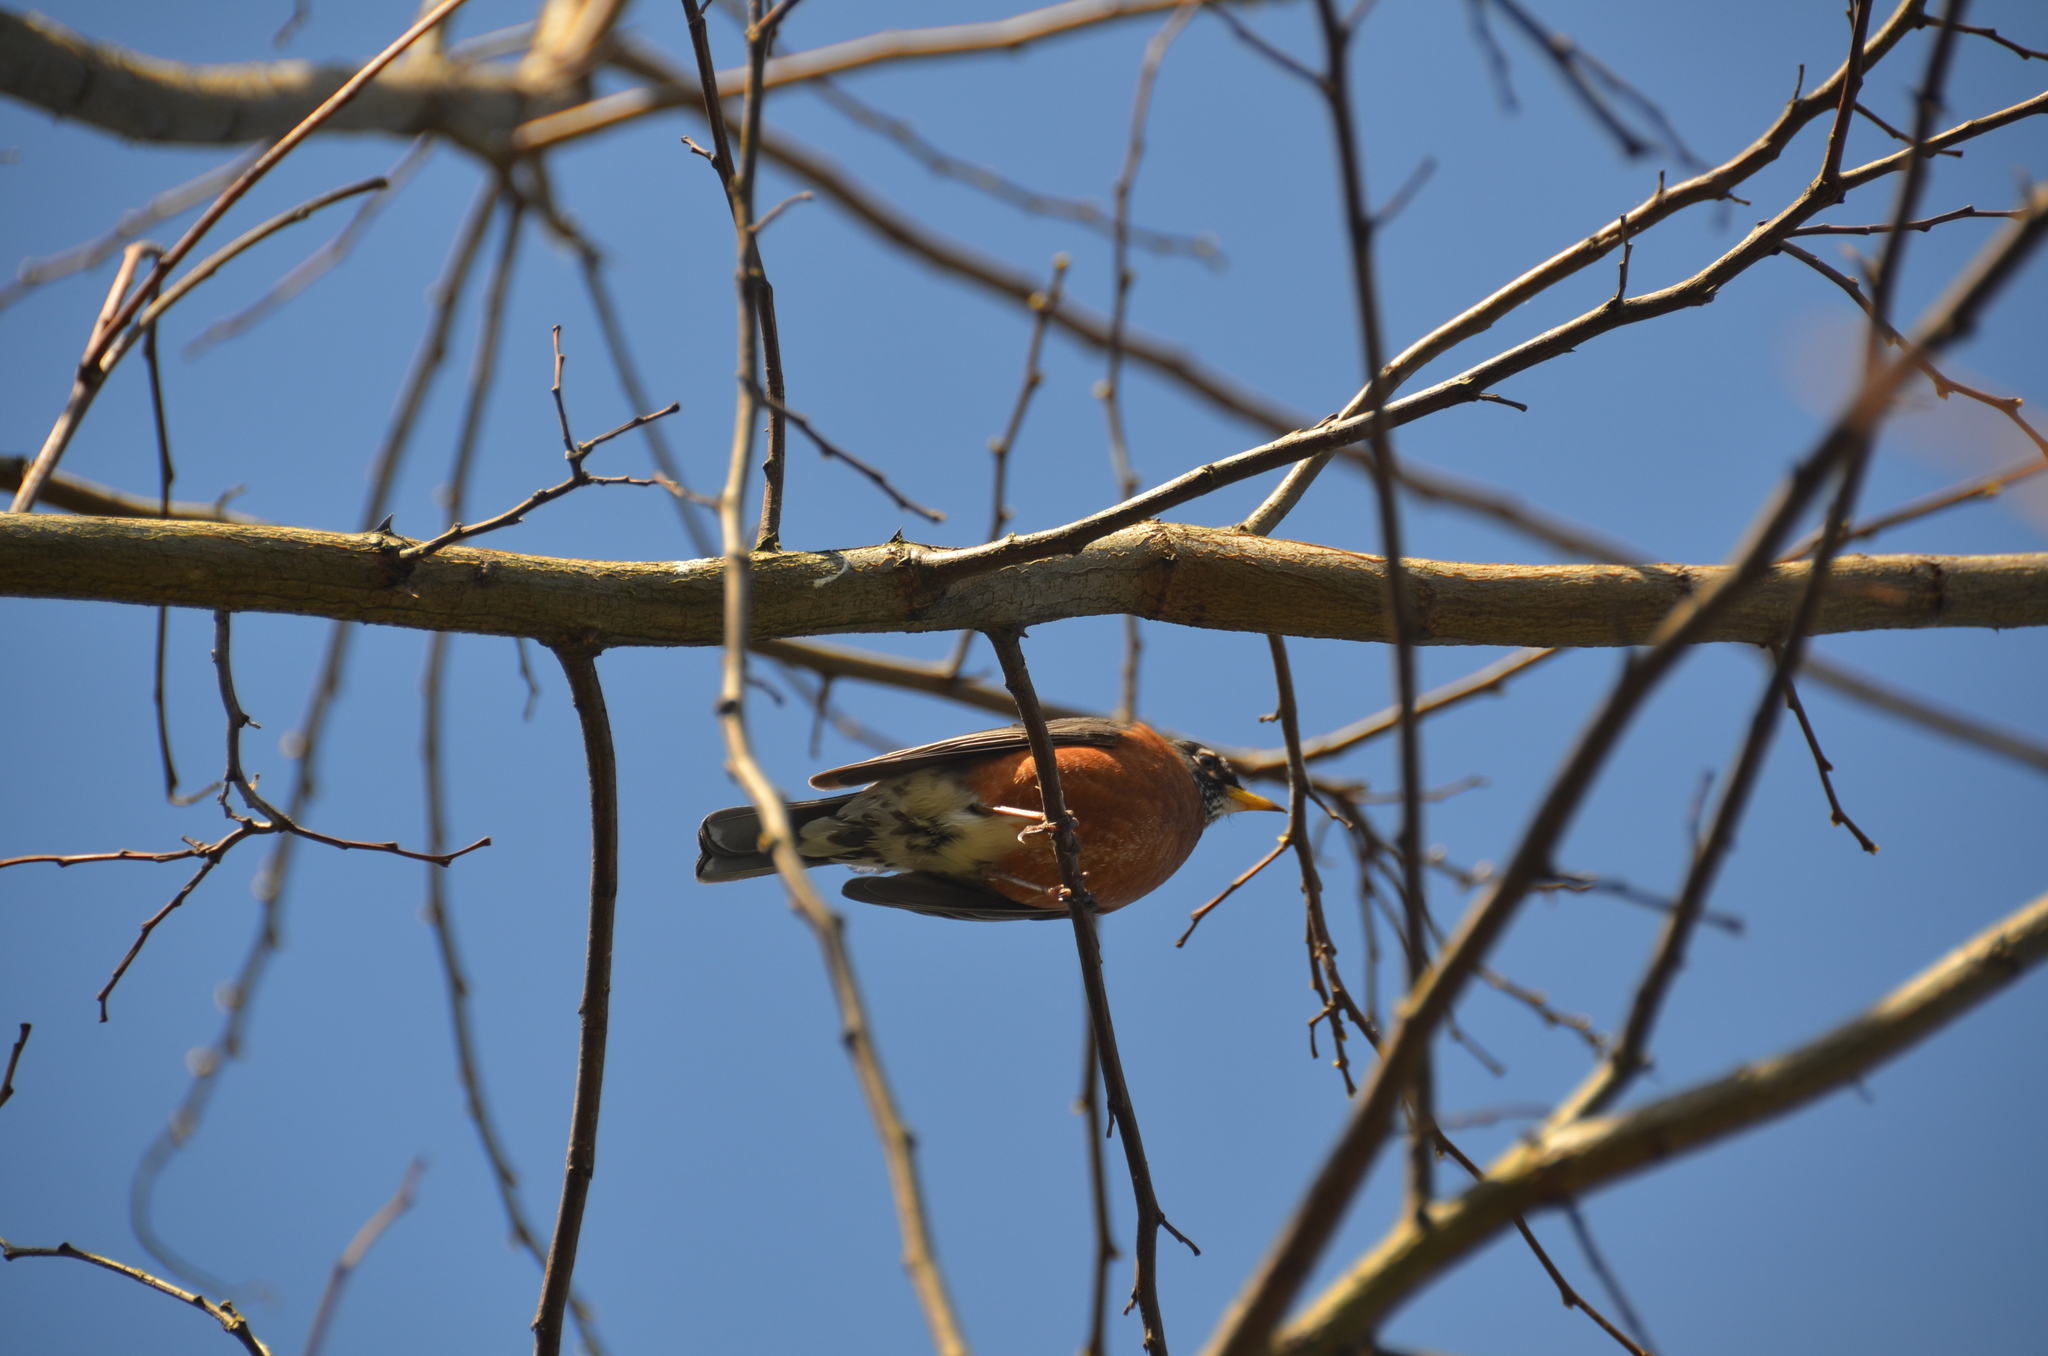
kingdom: Animalia
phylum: Chordata
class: Aves
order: Passeriformes
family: Turdidae
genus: Turdus
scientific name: Turdus migratorius
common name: American robin
